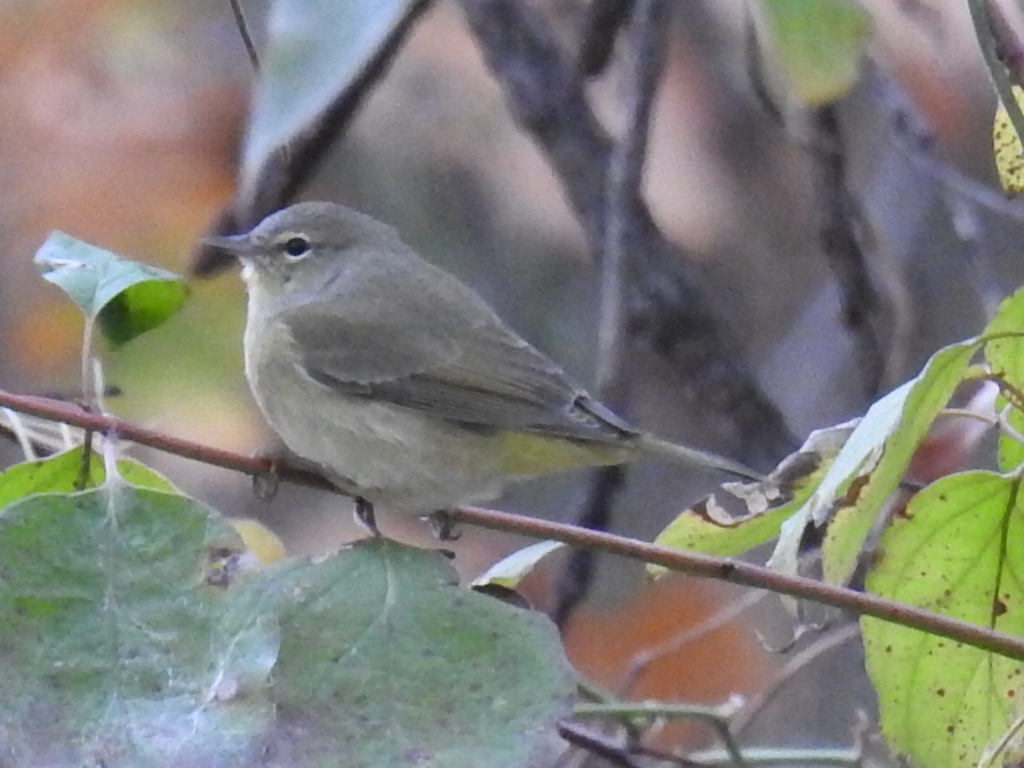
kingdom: Animalia
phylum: Chordata
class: Aves
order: Passeriformes
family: Parulidae
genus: Leiothlypis
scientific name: Leiothlypis celata
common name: Orange-crowned warbler
